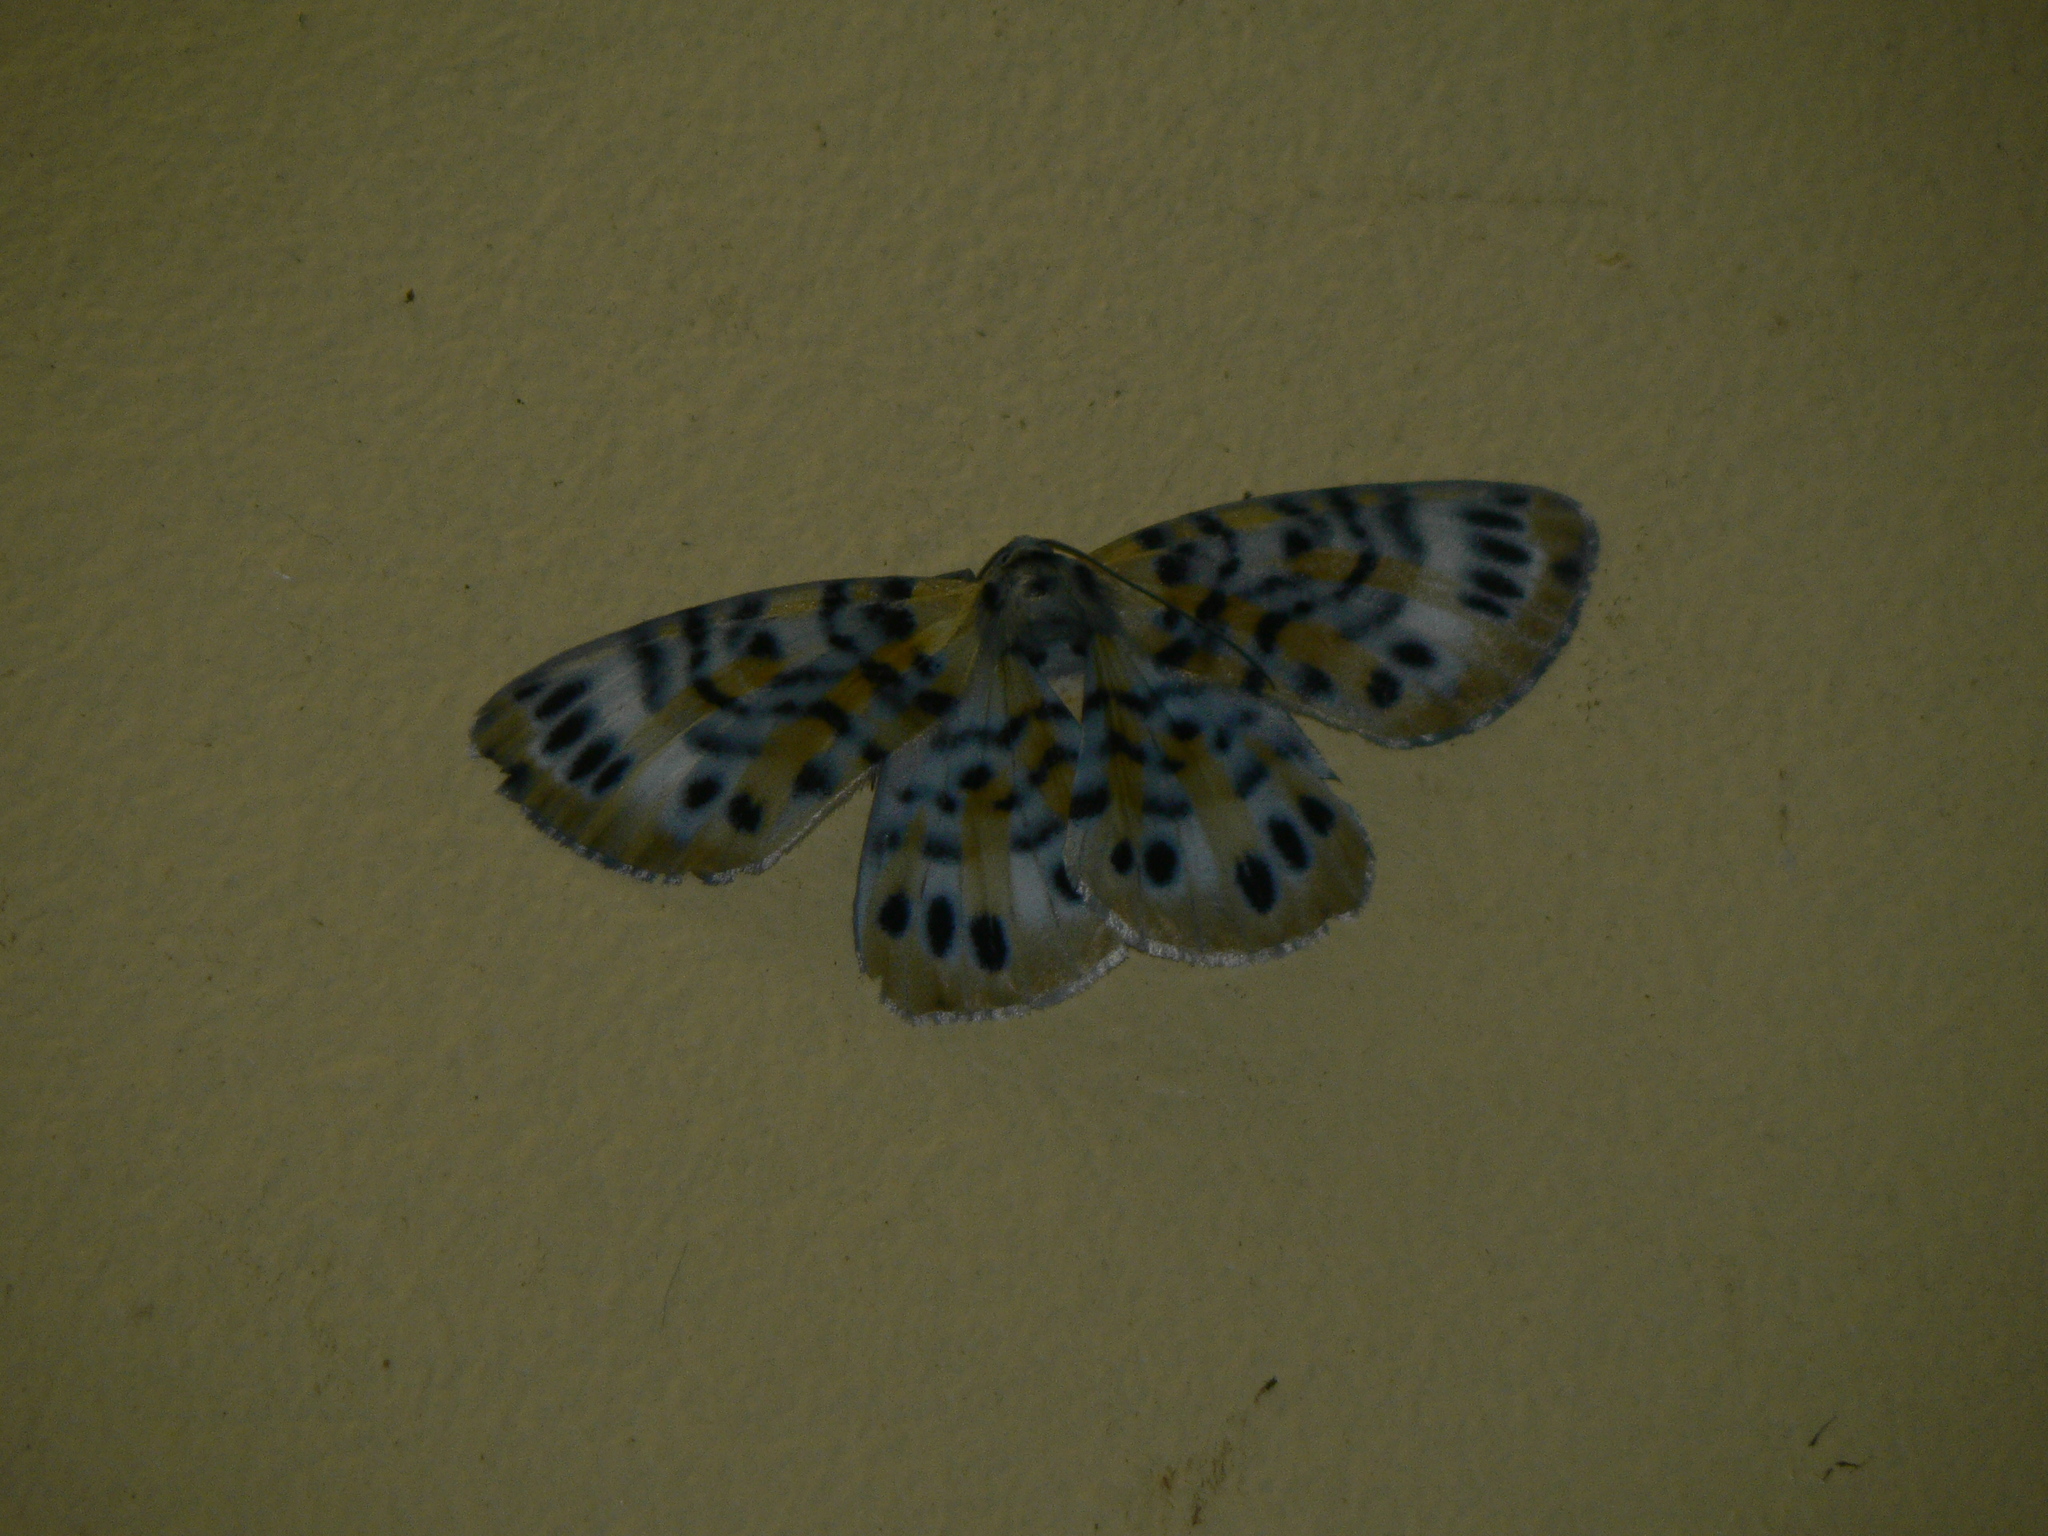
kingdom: Animalia
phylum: Arthropoda
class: Insecta
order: Lepidoptera
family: Geometridae
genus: Bracca
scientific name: Bracca rotundata
